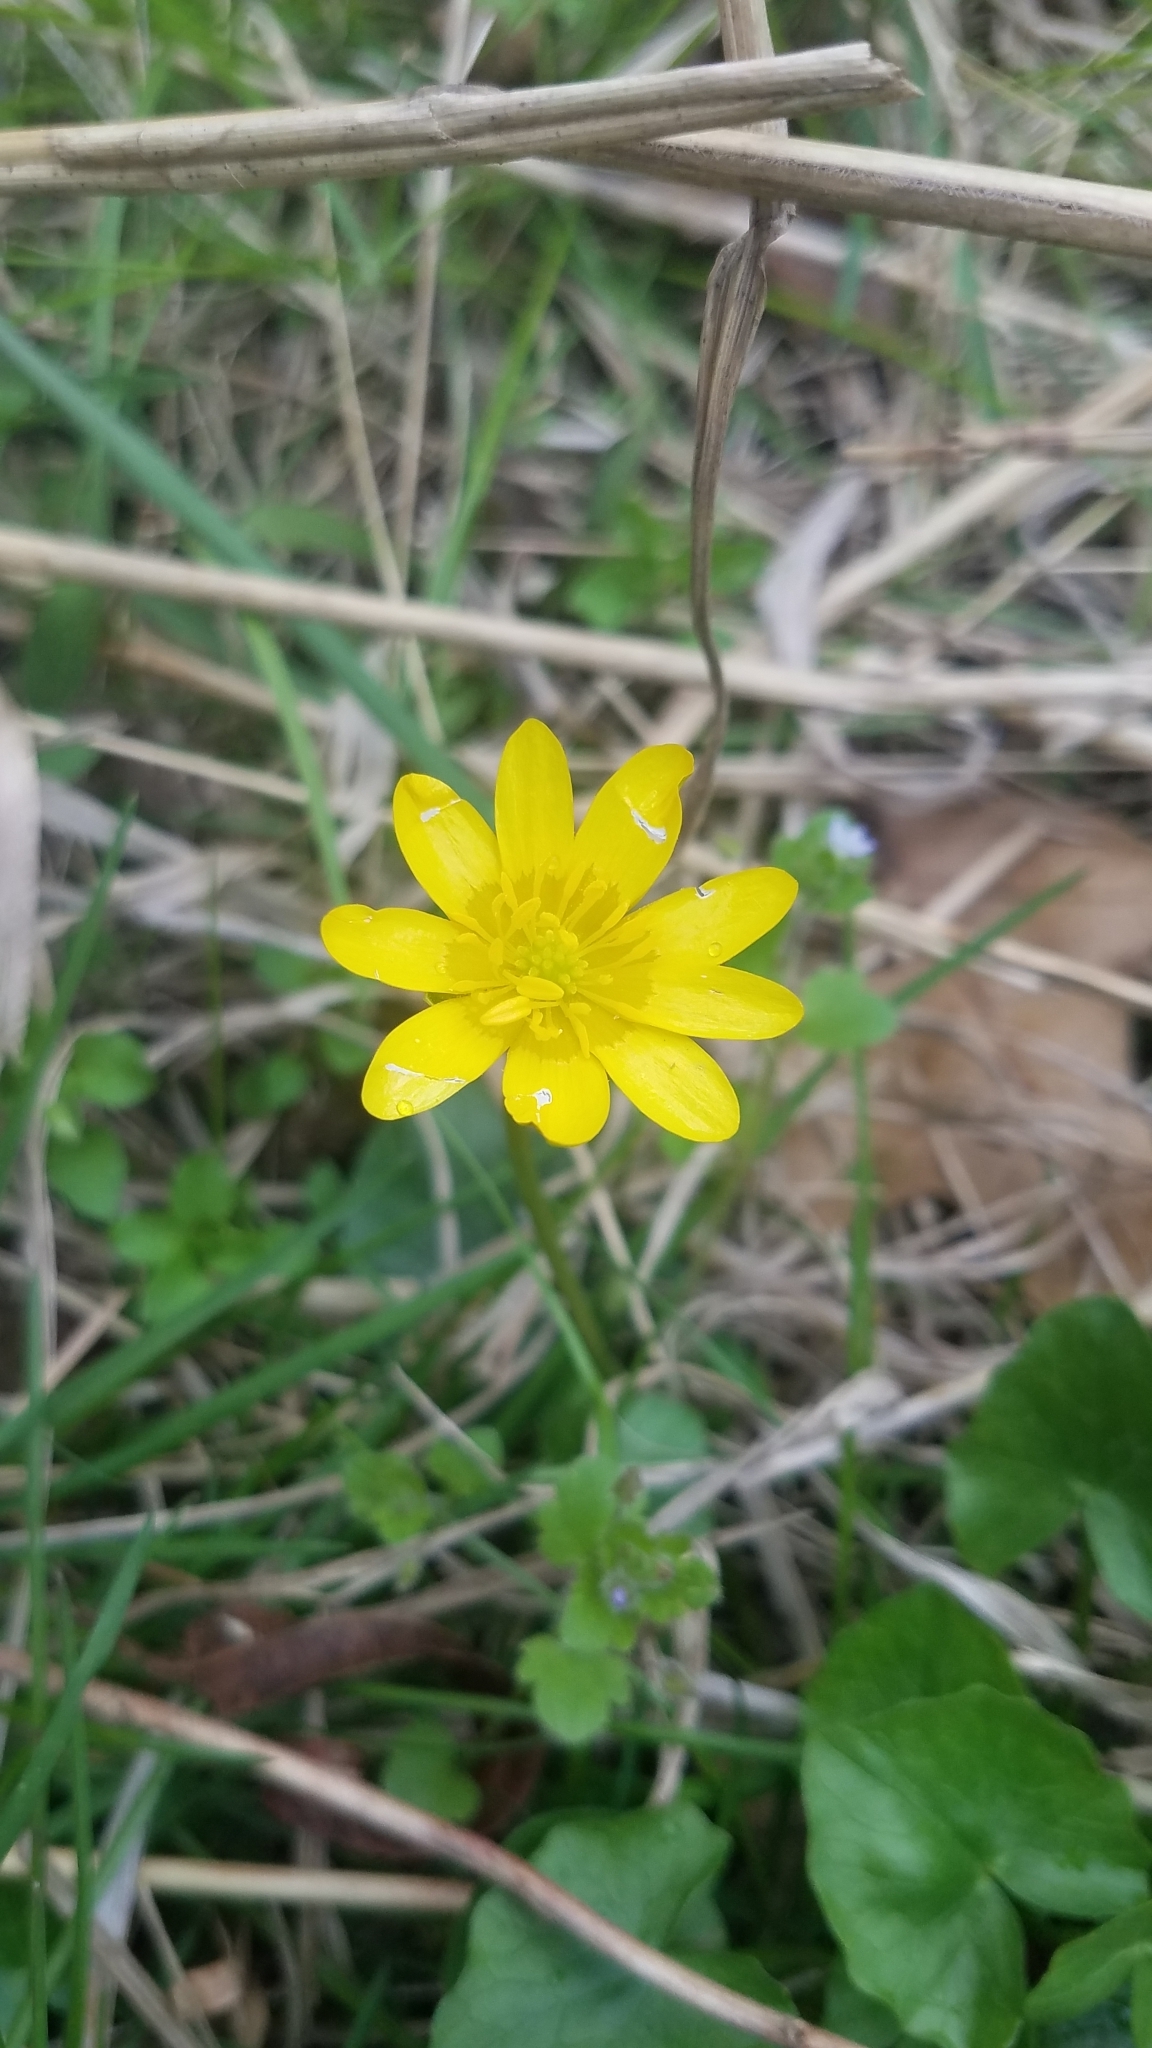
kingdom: Plantae
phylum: Tracheophyta
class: Magnoliopsida
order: Ranunculales
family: Ranunculaceae
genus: Ficaria
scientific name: Ficaria verna
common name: Lesser celandine
